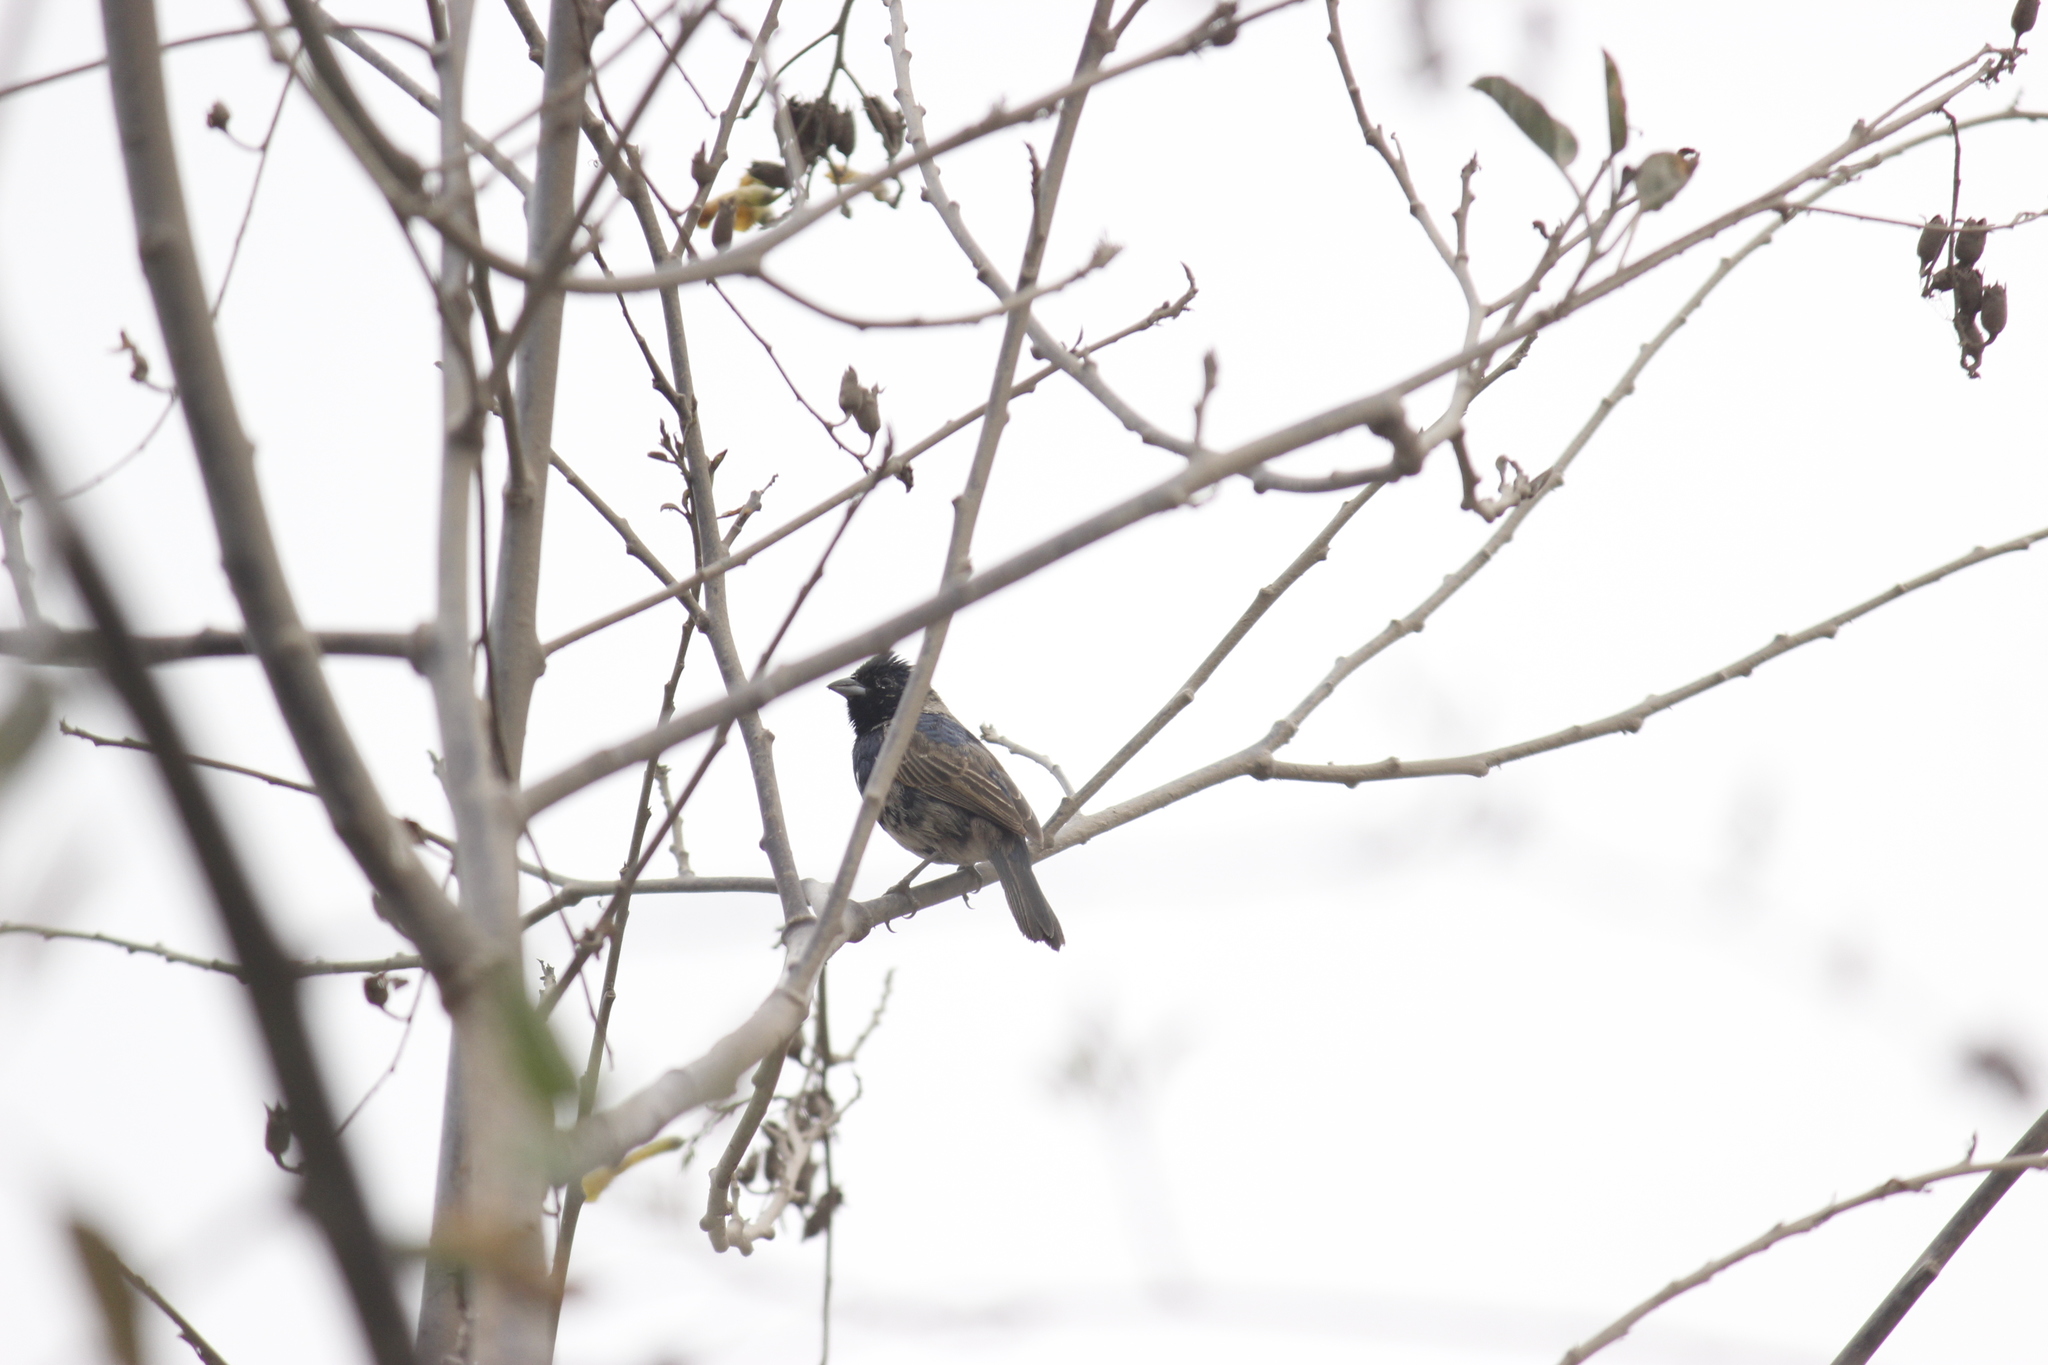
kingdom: Animalia
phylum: Chordata
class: Aves
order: Passeriformes
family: Thraupidae
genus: Volatinia
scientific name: Volatinia jacarina
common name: Blue-black grassquit
